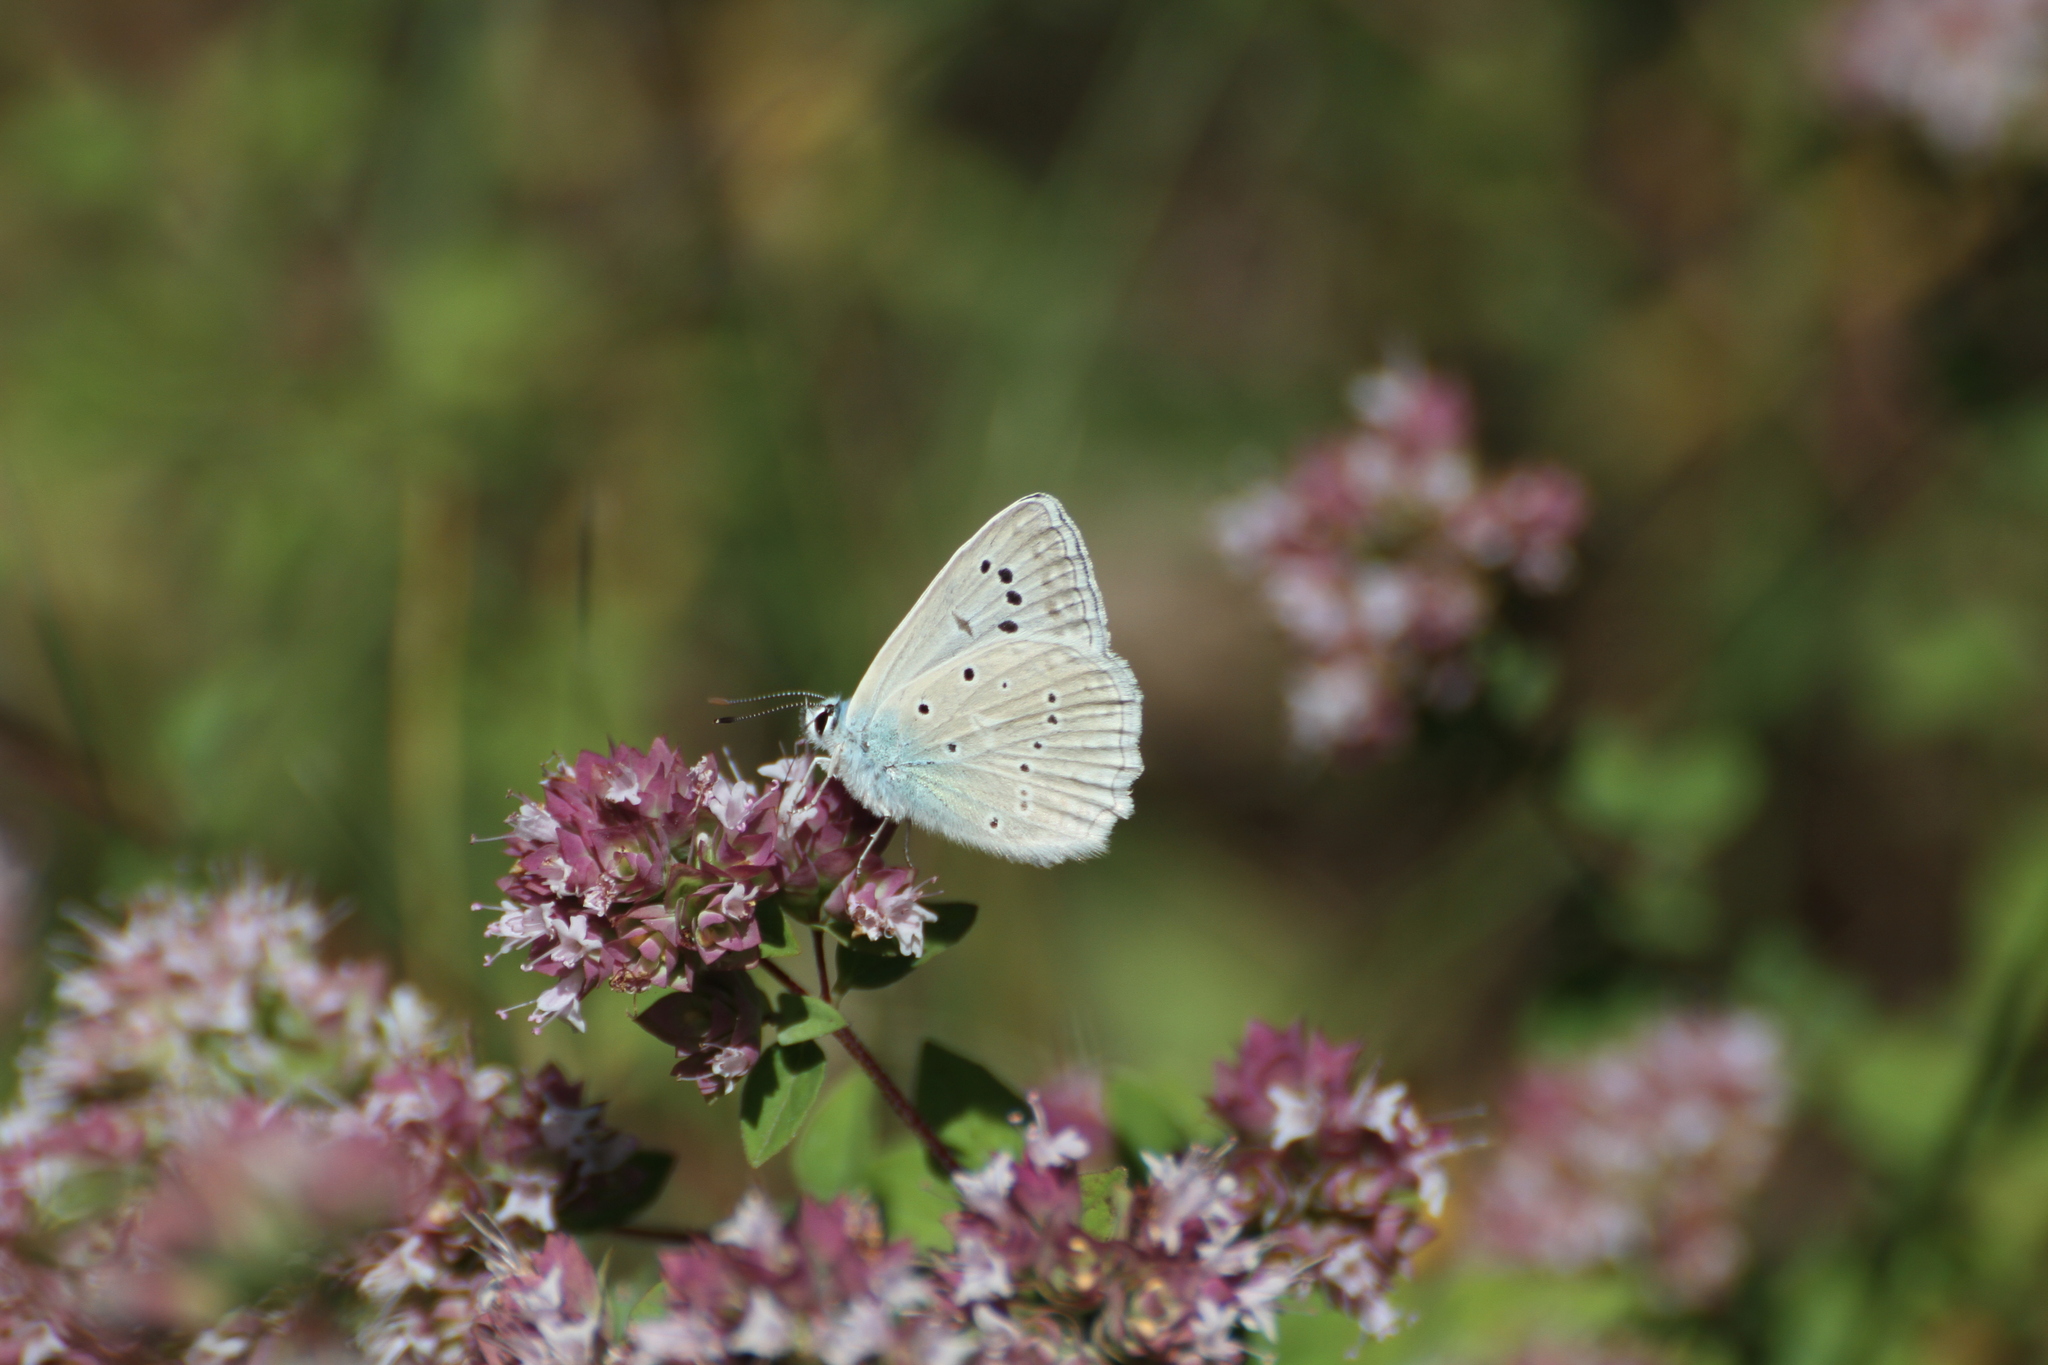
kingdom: Animalia
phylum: Arthropoda
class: Insecta
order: Lepidoptera
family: Lycaenidae
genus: Polyommatus
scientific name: Polyommatus daphnis
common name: Meleager's blue
